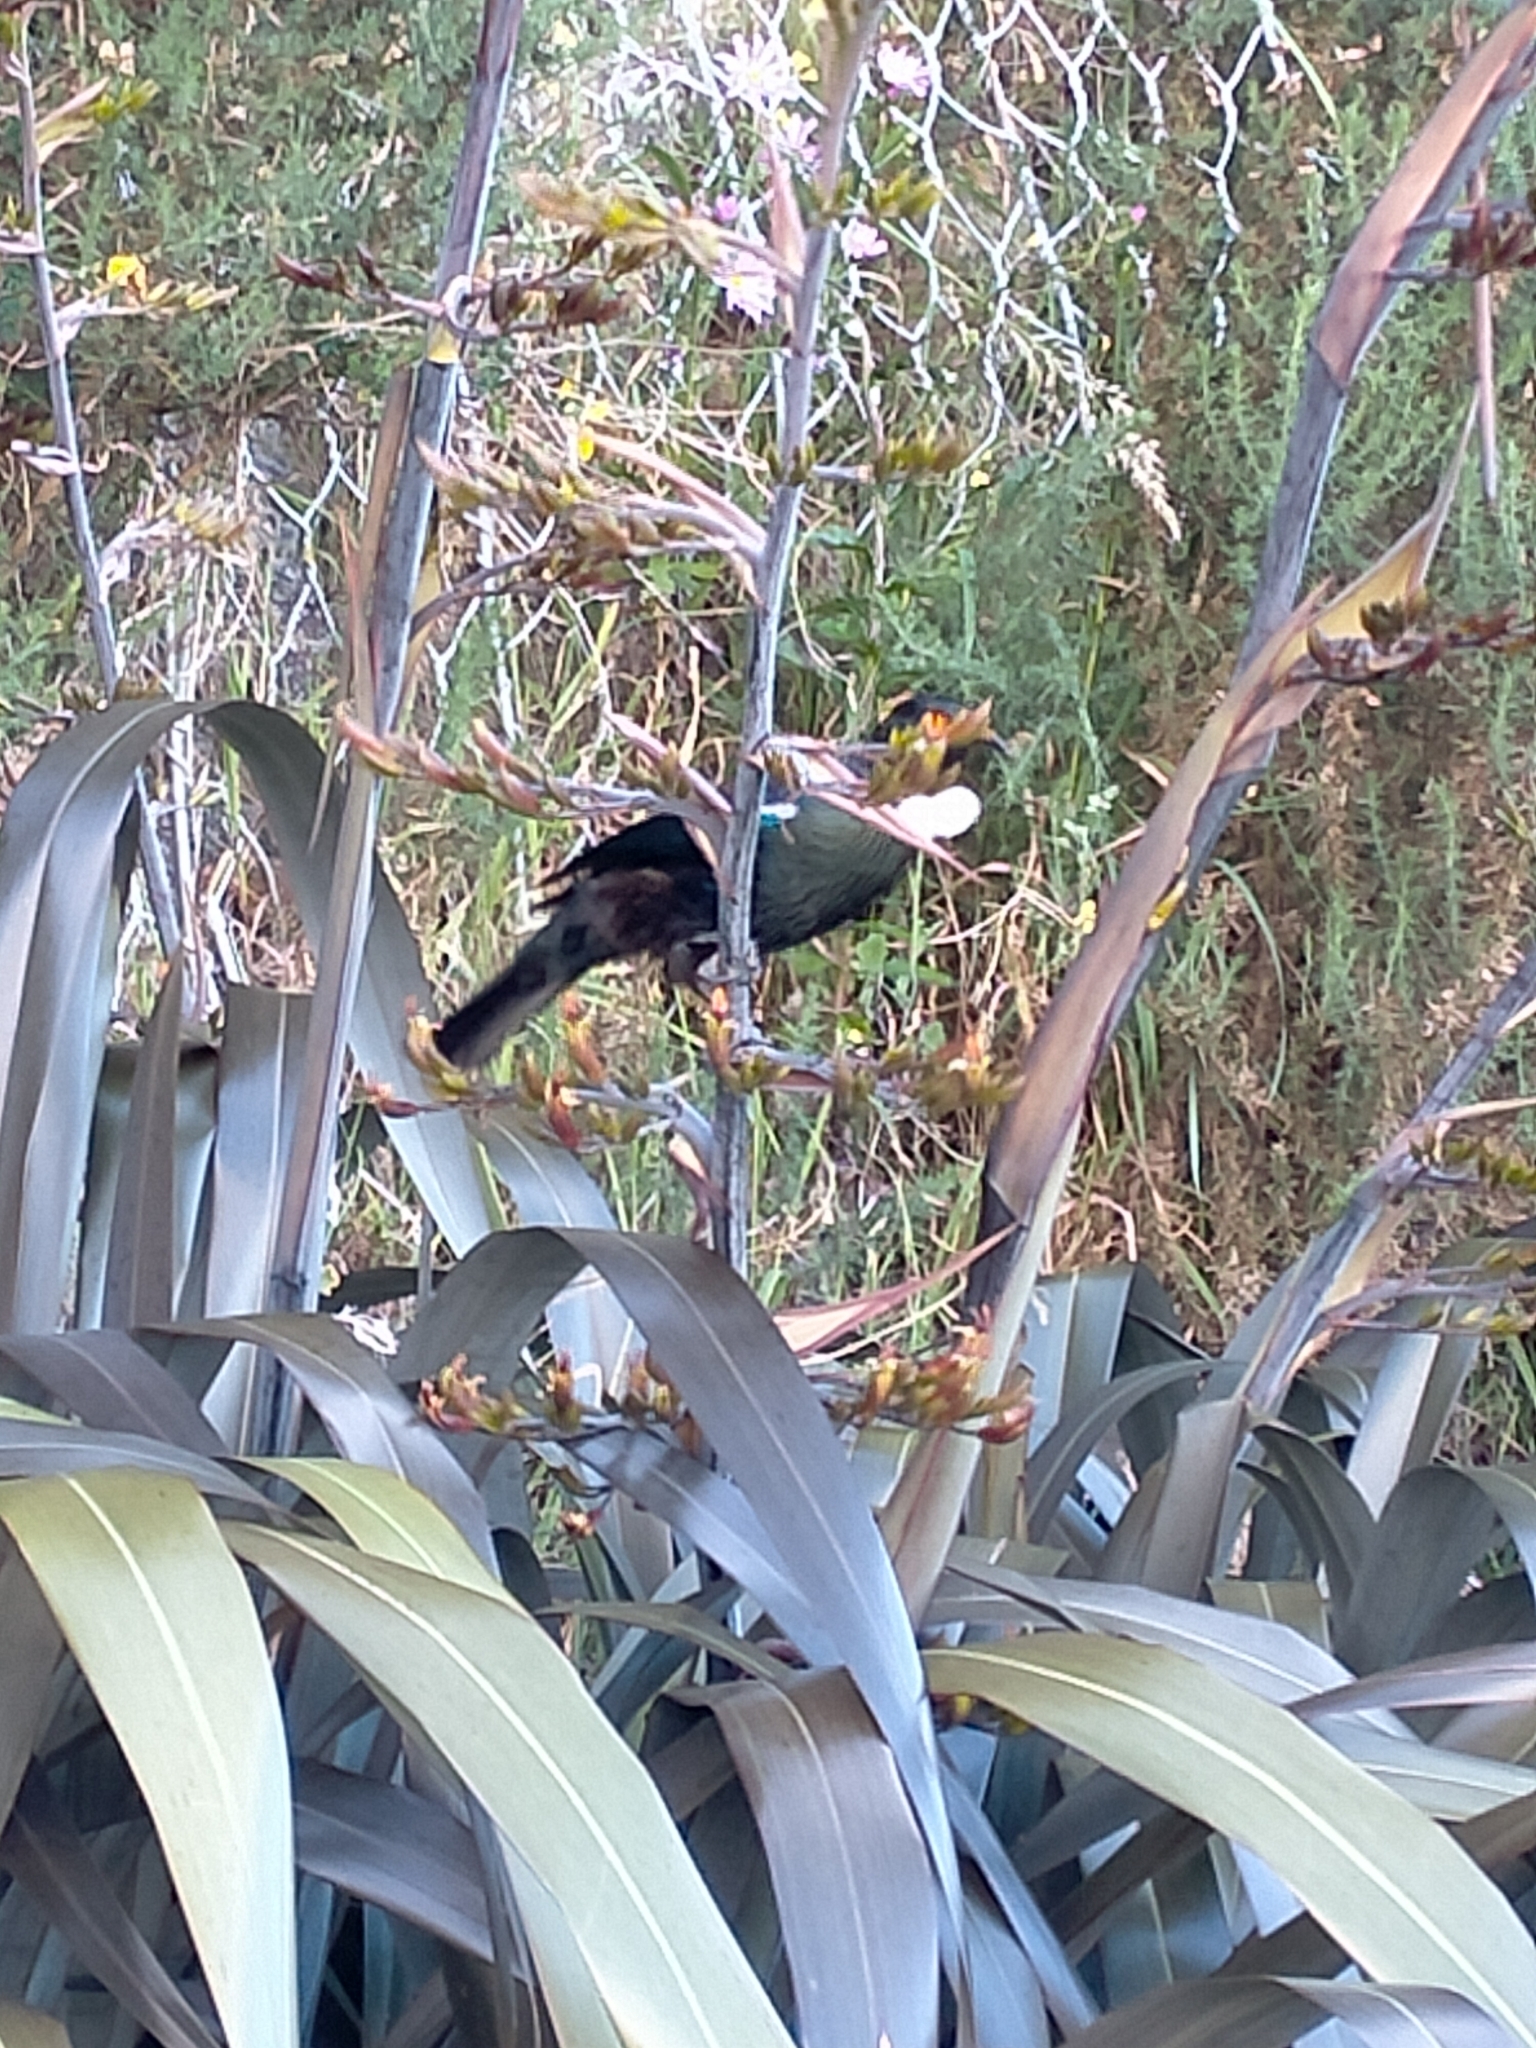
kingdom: Animalia
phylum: Chordata
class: Aves
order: Passeriformes
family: Meliphagidae
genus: Prosthemadera
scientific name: Prosthemadera novaeseelandiae
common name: Tui
